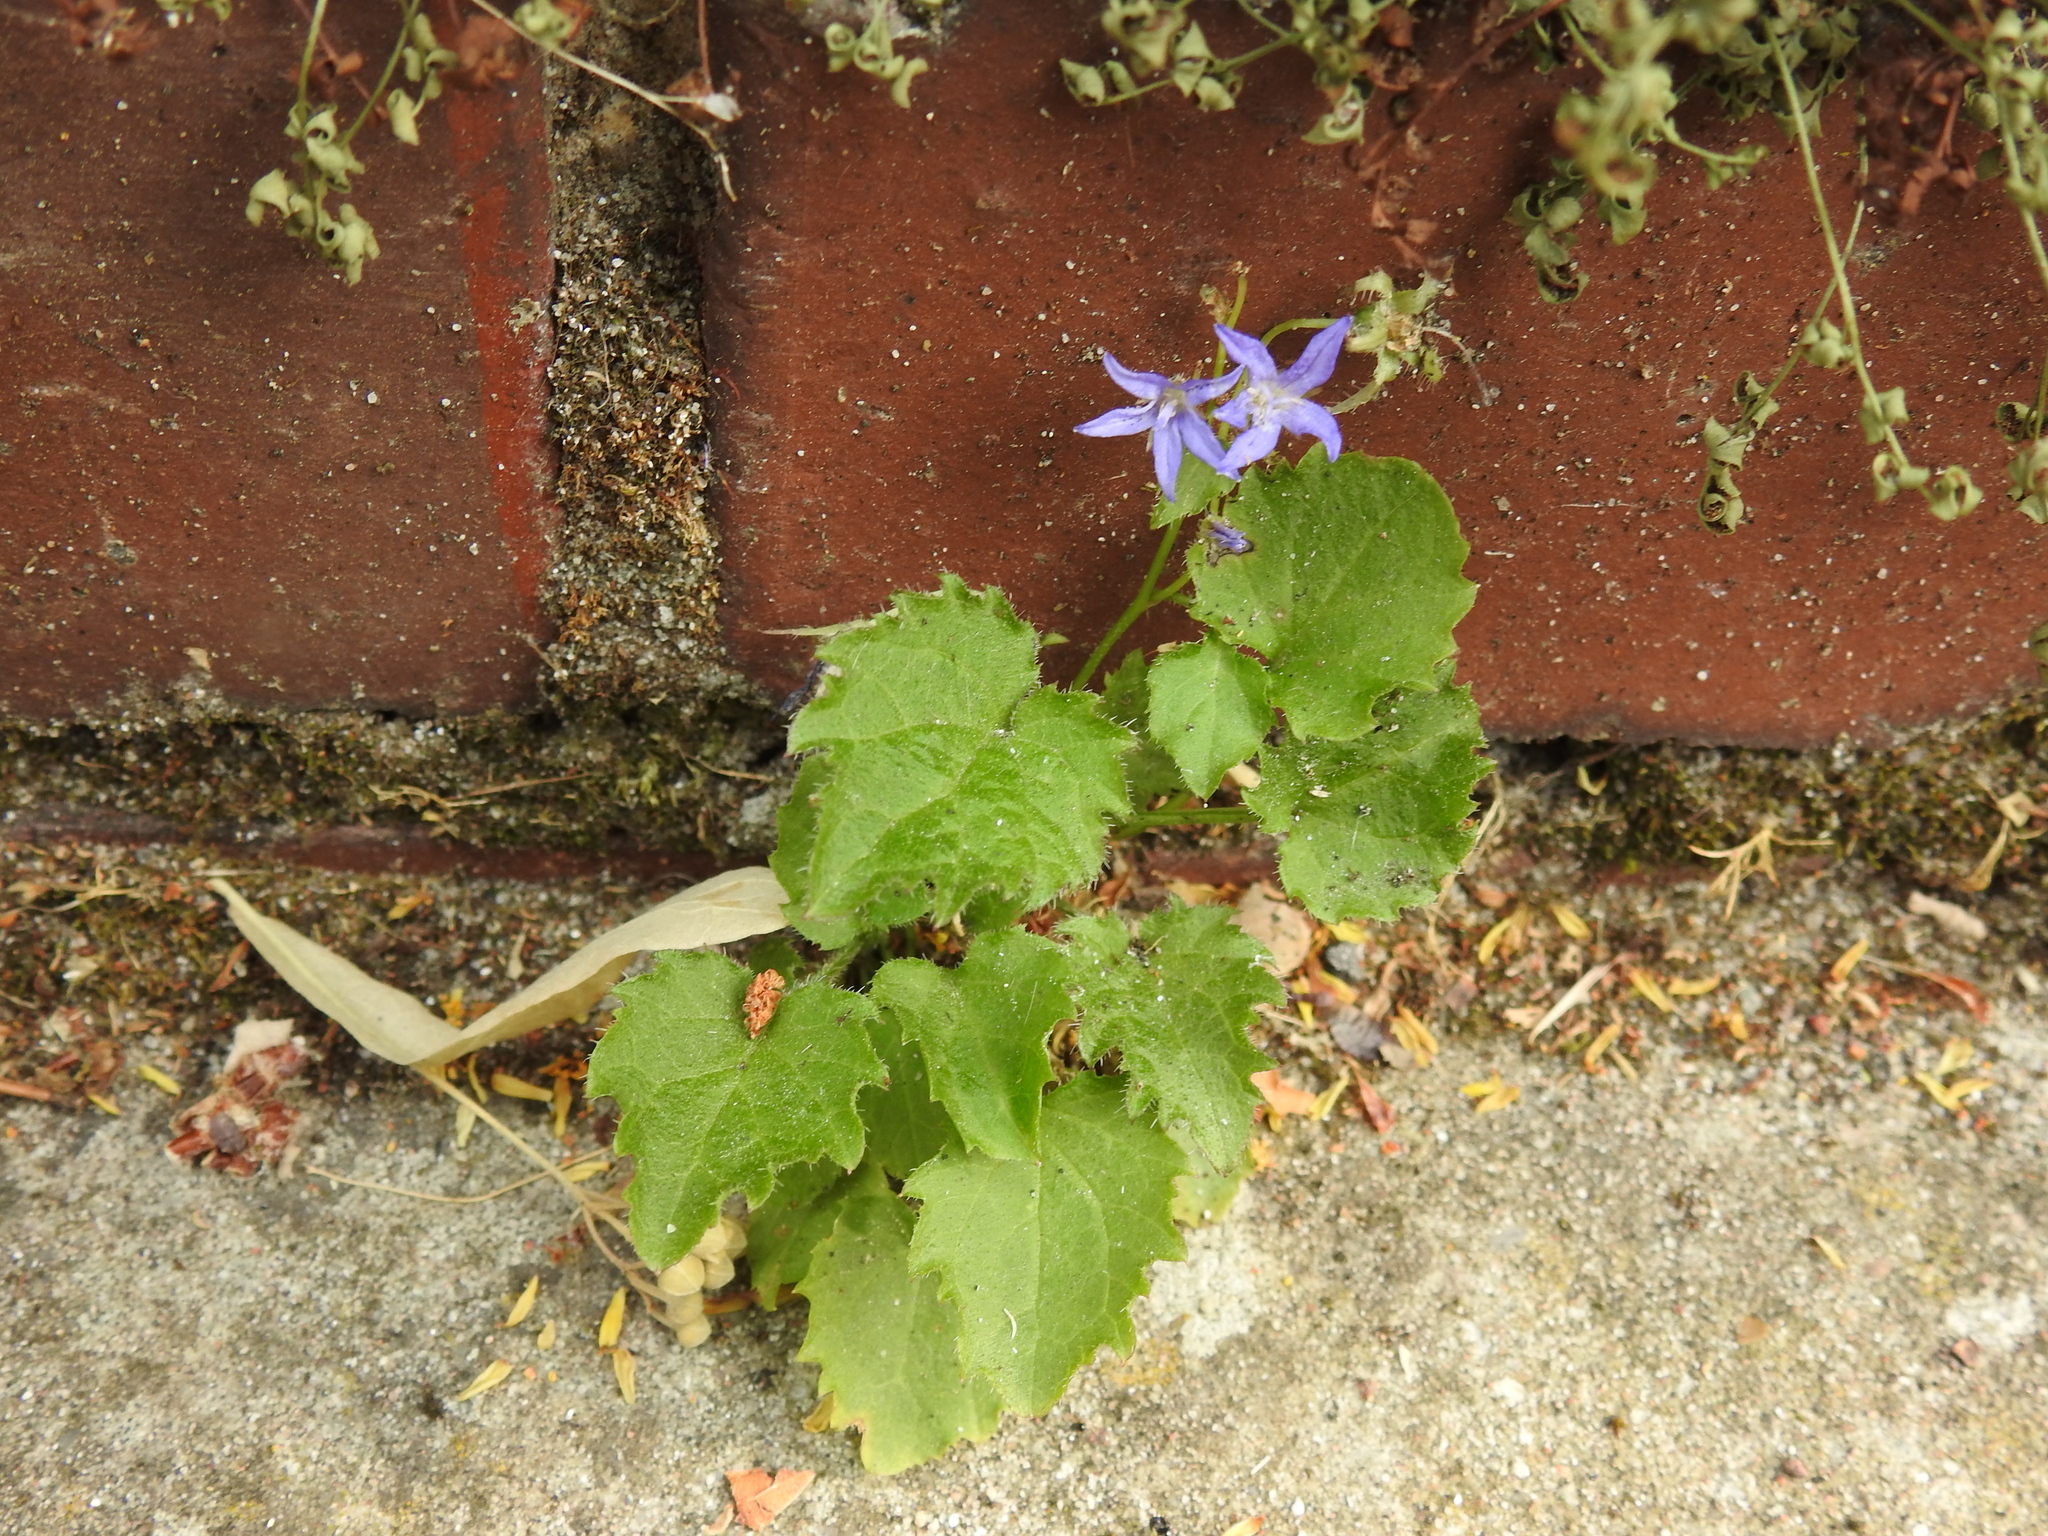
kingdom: Plantae
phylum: Tracheophyta
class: Magnoliopsida
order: Asterales
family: Campanulaceae
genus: Campanula
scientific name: Campanula poscharskyana
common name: Trailing bellflower
